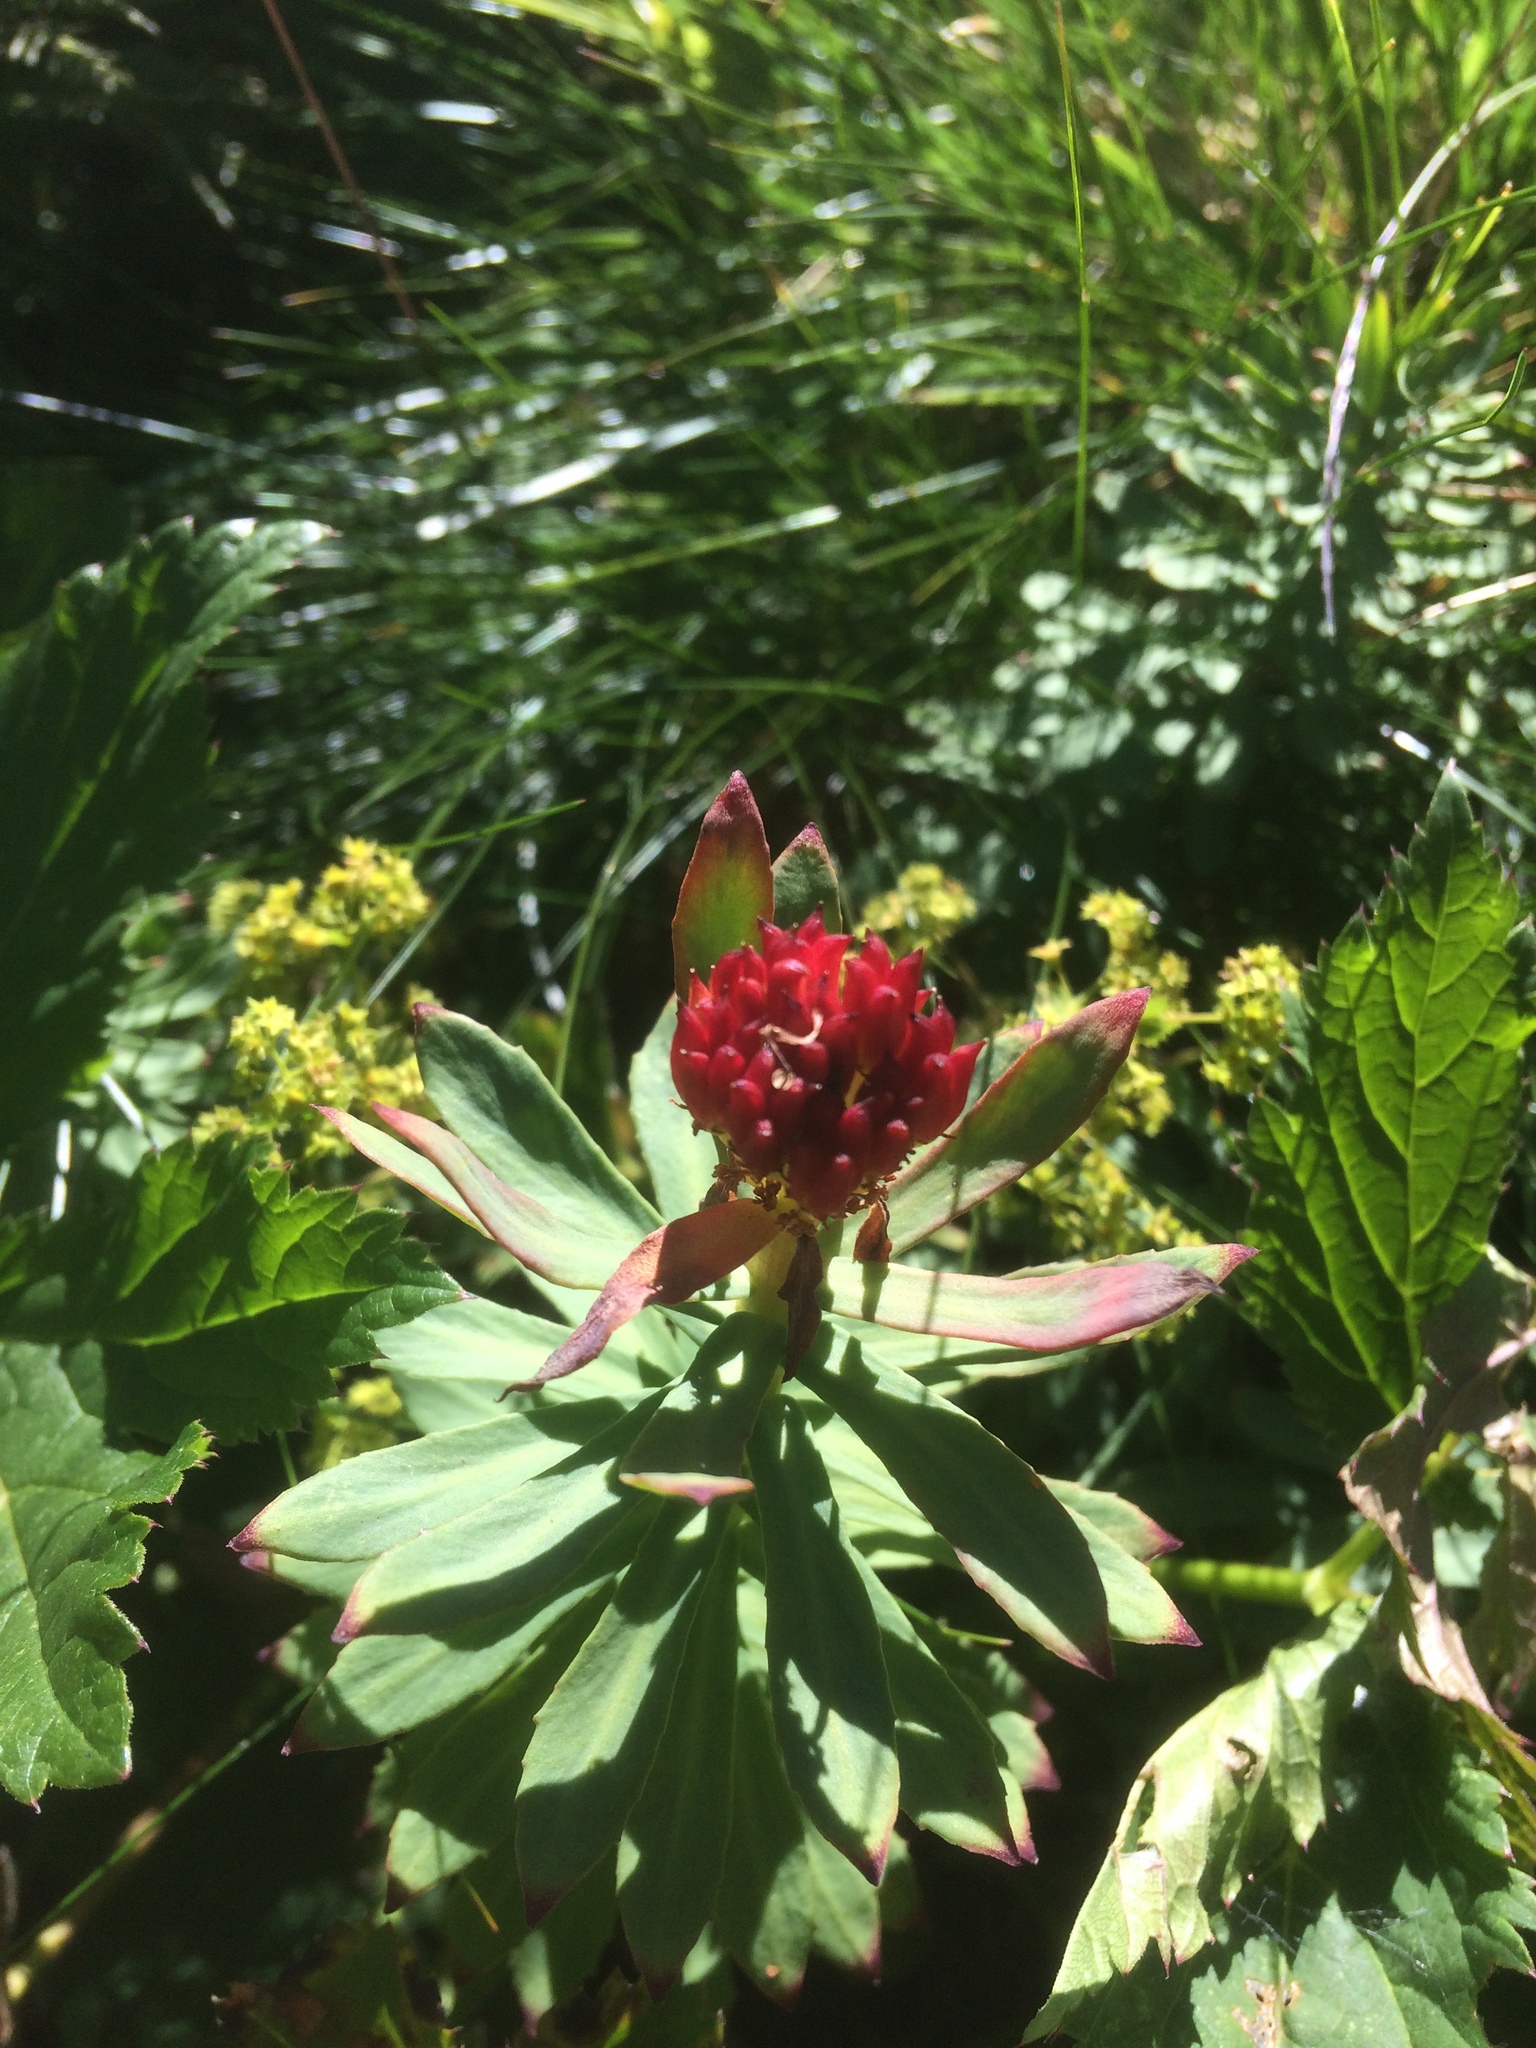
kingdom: Plantae
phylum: Tracheophyta
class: Magnoliopsida
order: Saxifragales
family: Crassulaceae
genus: Rhodiola
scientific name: Rhodiola rosea
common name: Roseroot
